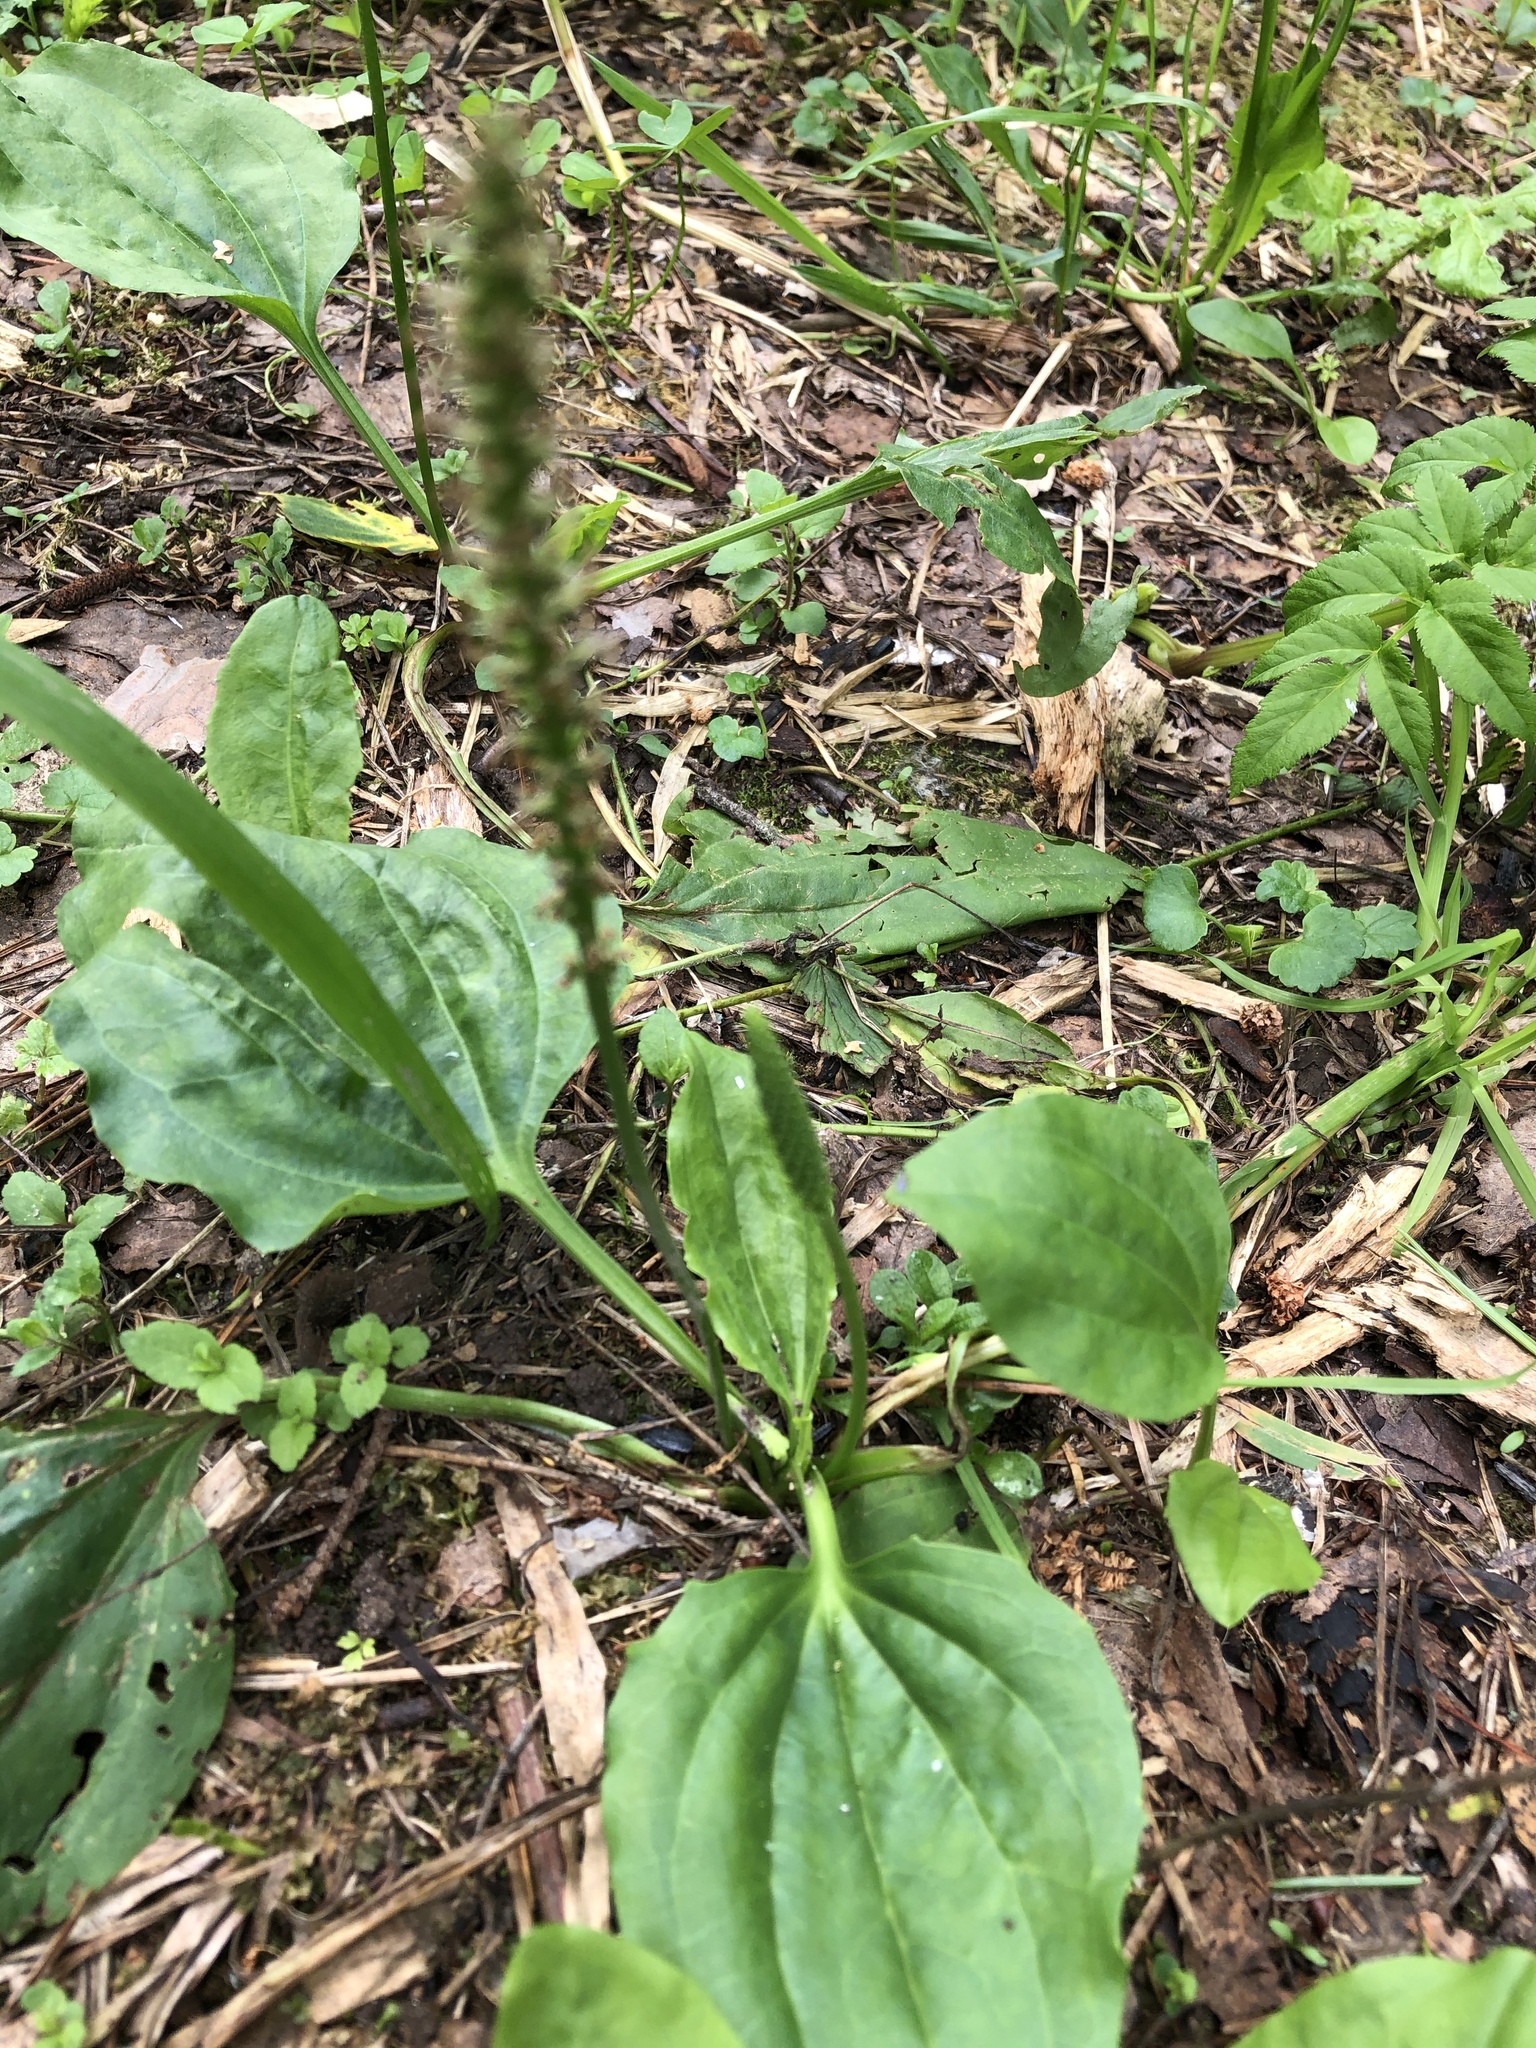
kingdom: Plantae
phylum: Tracheophyta
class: Magnoliopsida
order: Lamiales
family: Plantaginaceae
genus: Plantago
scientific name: Plantago major
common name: Common plantain
